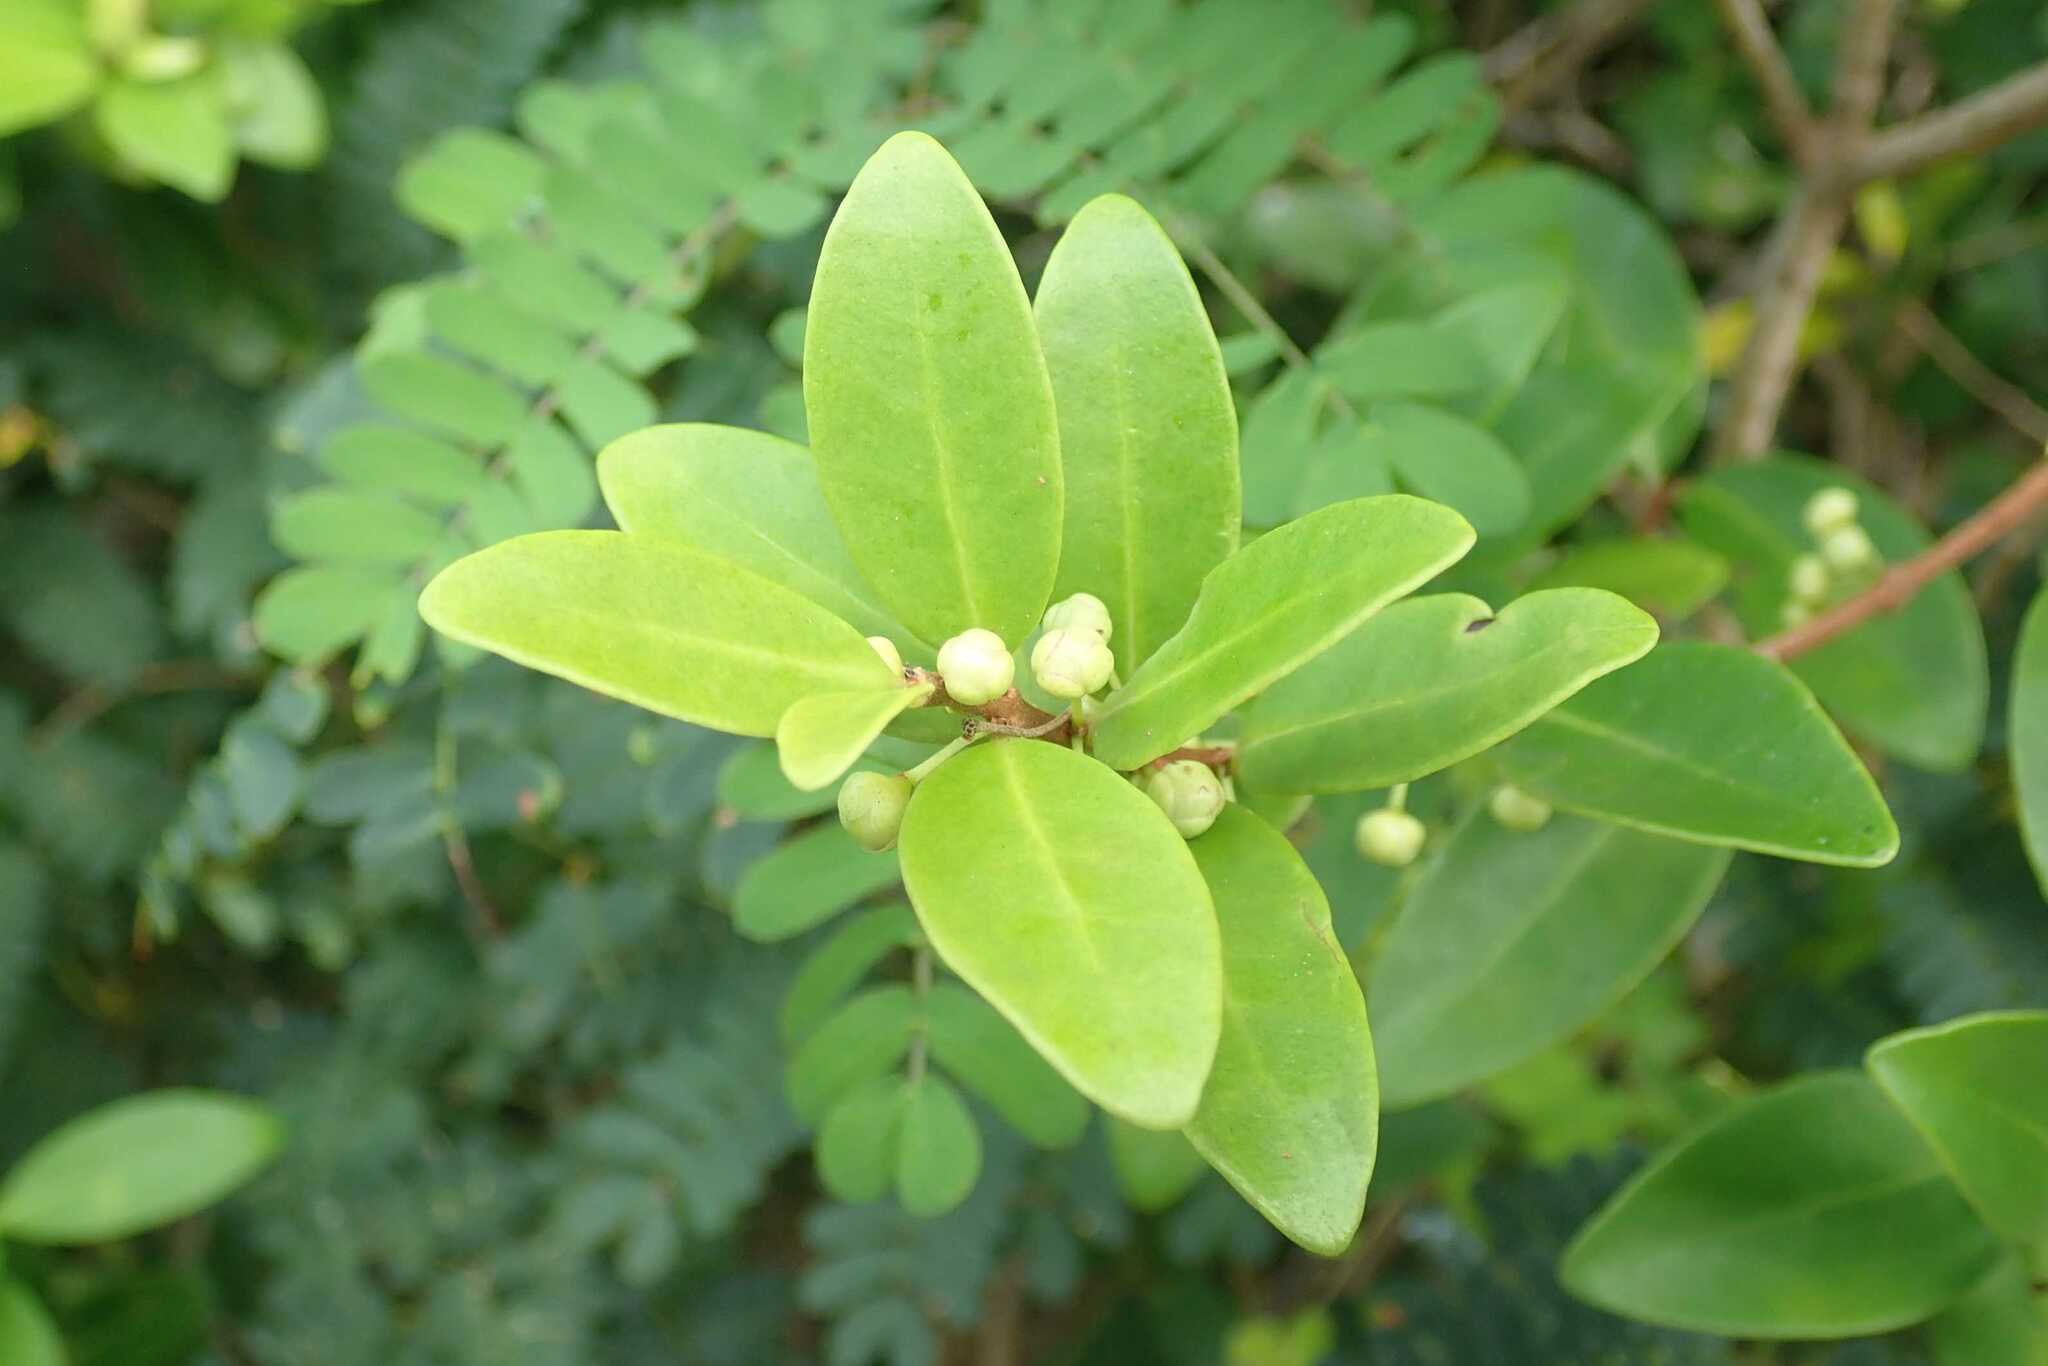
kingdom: Plantae
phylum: Tracheophyta
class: Magnoliopsida
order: Myrtales
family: Myrtaceae
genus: Eugenia
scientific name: Eugenia capensis
